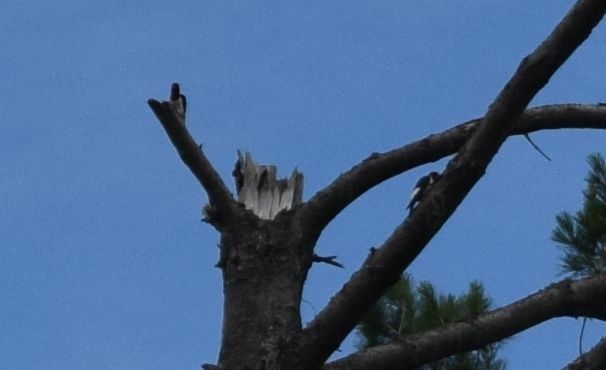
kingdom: Animalia
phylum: Chordata
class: Aves
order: Piciformes
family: Picidae
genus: Melanerpes
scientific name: Melanerpes erythrocephalus
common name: Red-headed woodpecker
